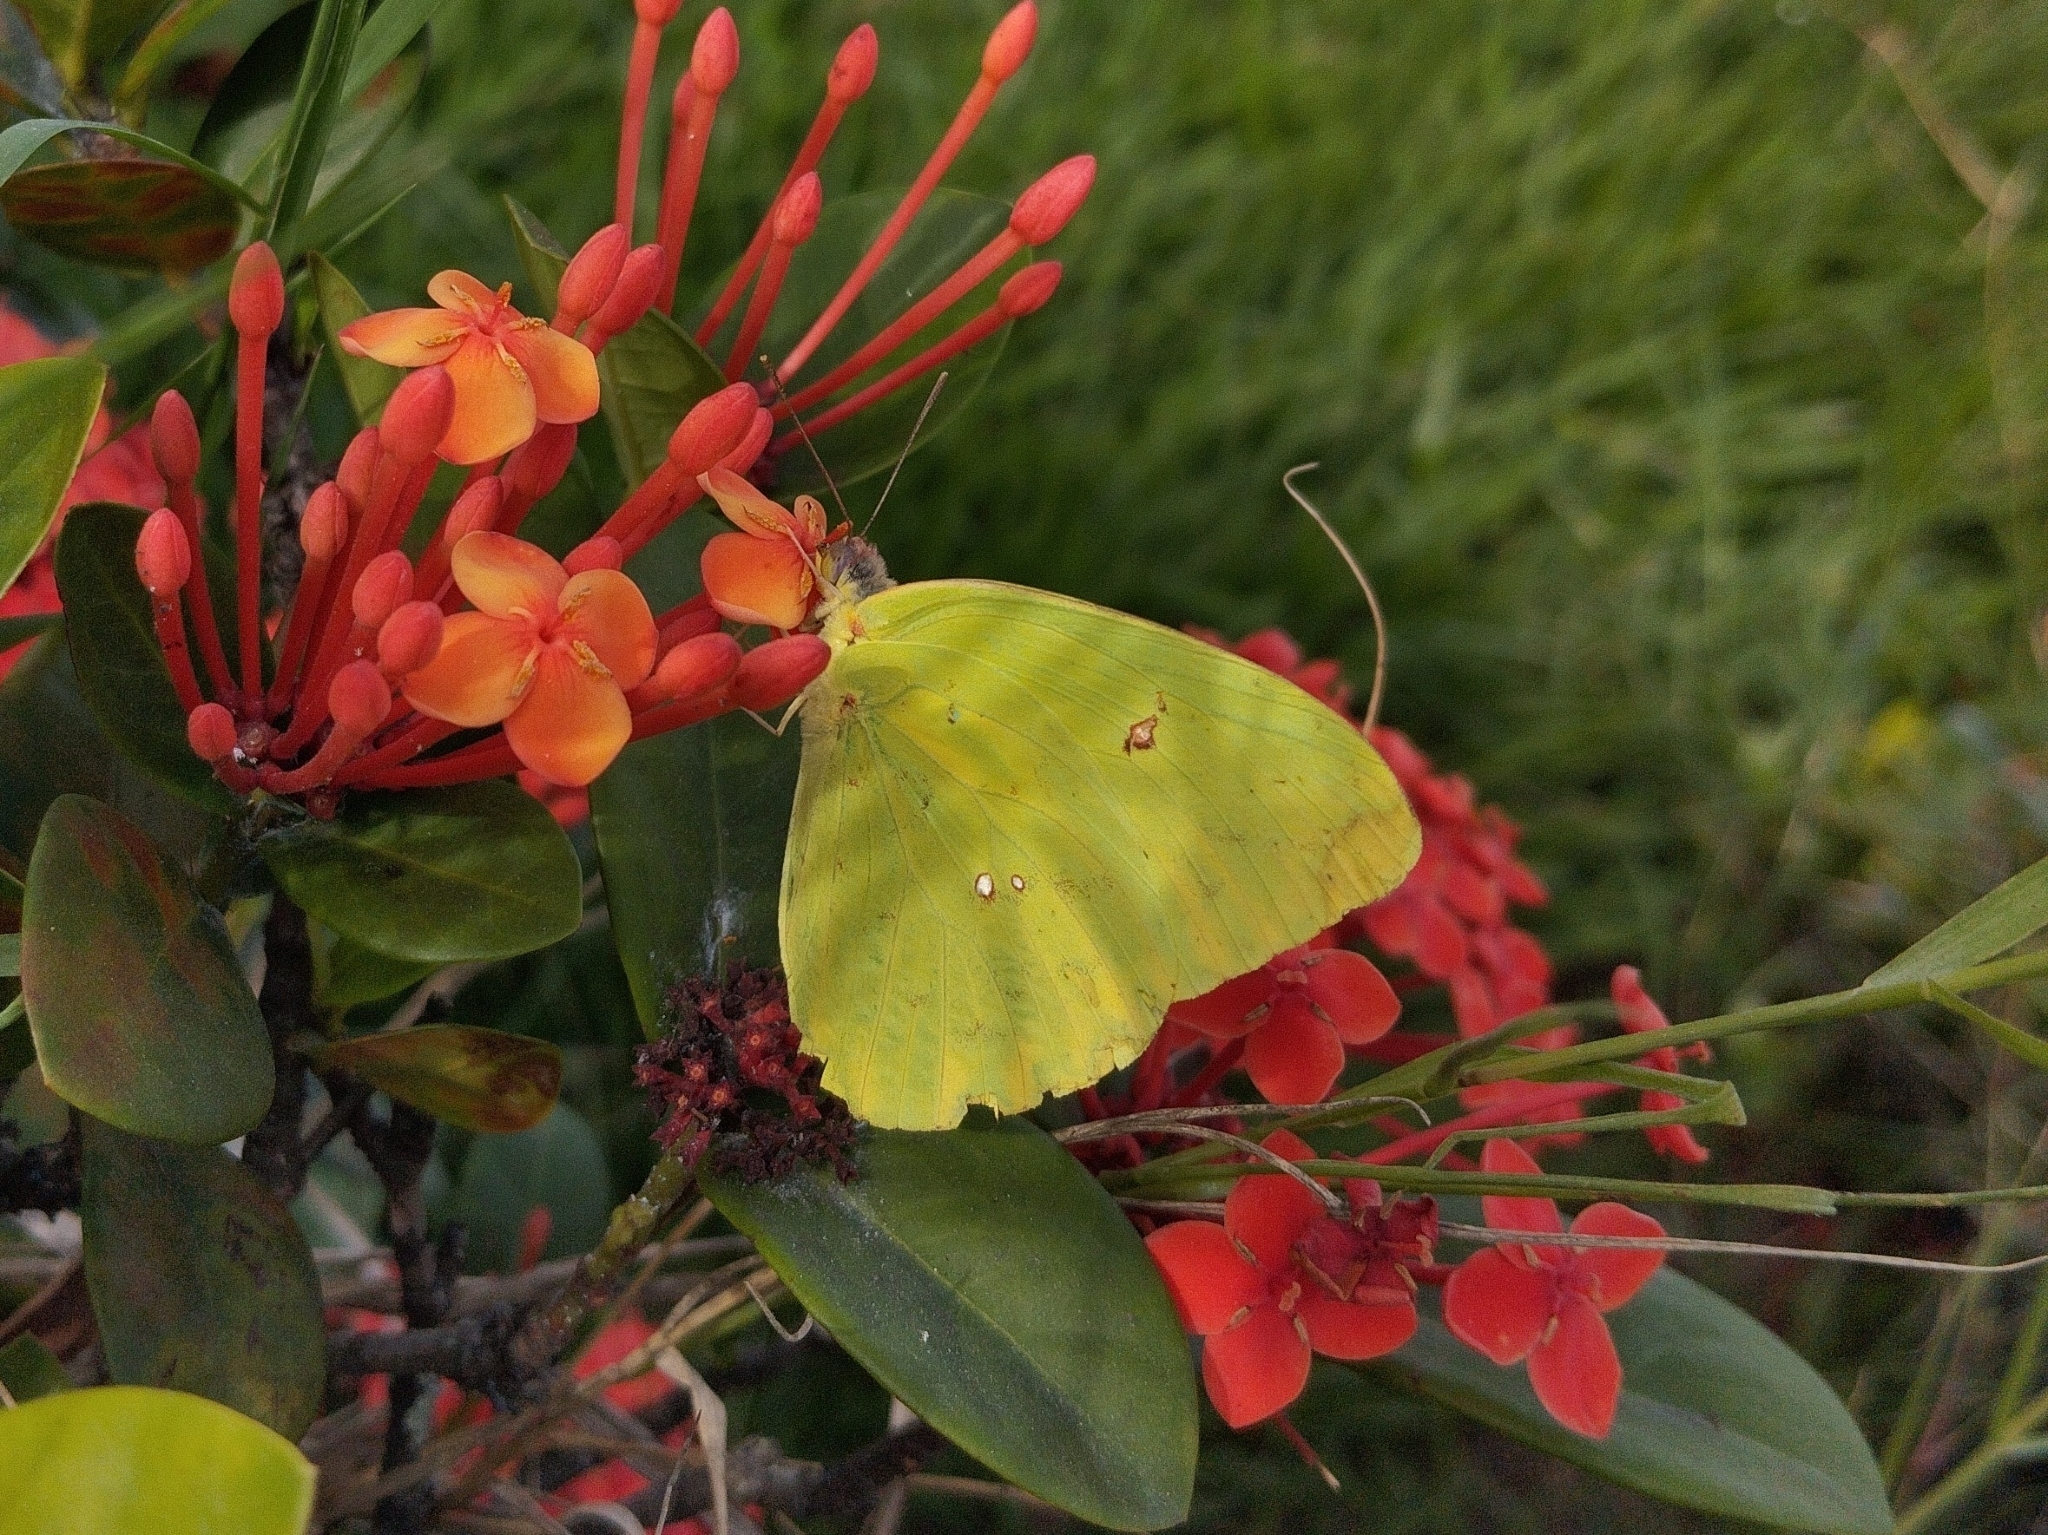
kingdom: Animalia
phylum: Arthropoda
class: Insecta
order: Lepidoptera
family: Pieridae
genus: Phoebis
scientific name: Phoebis marcellina
